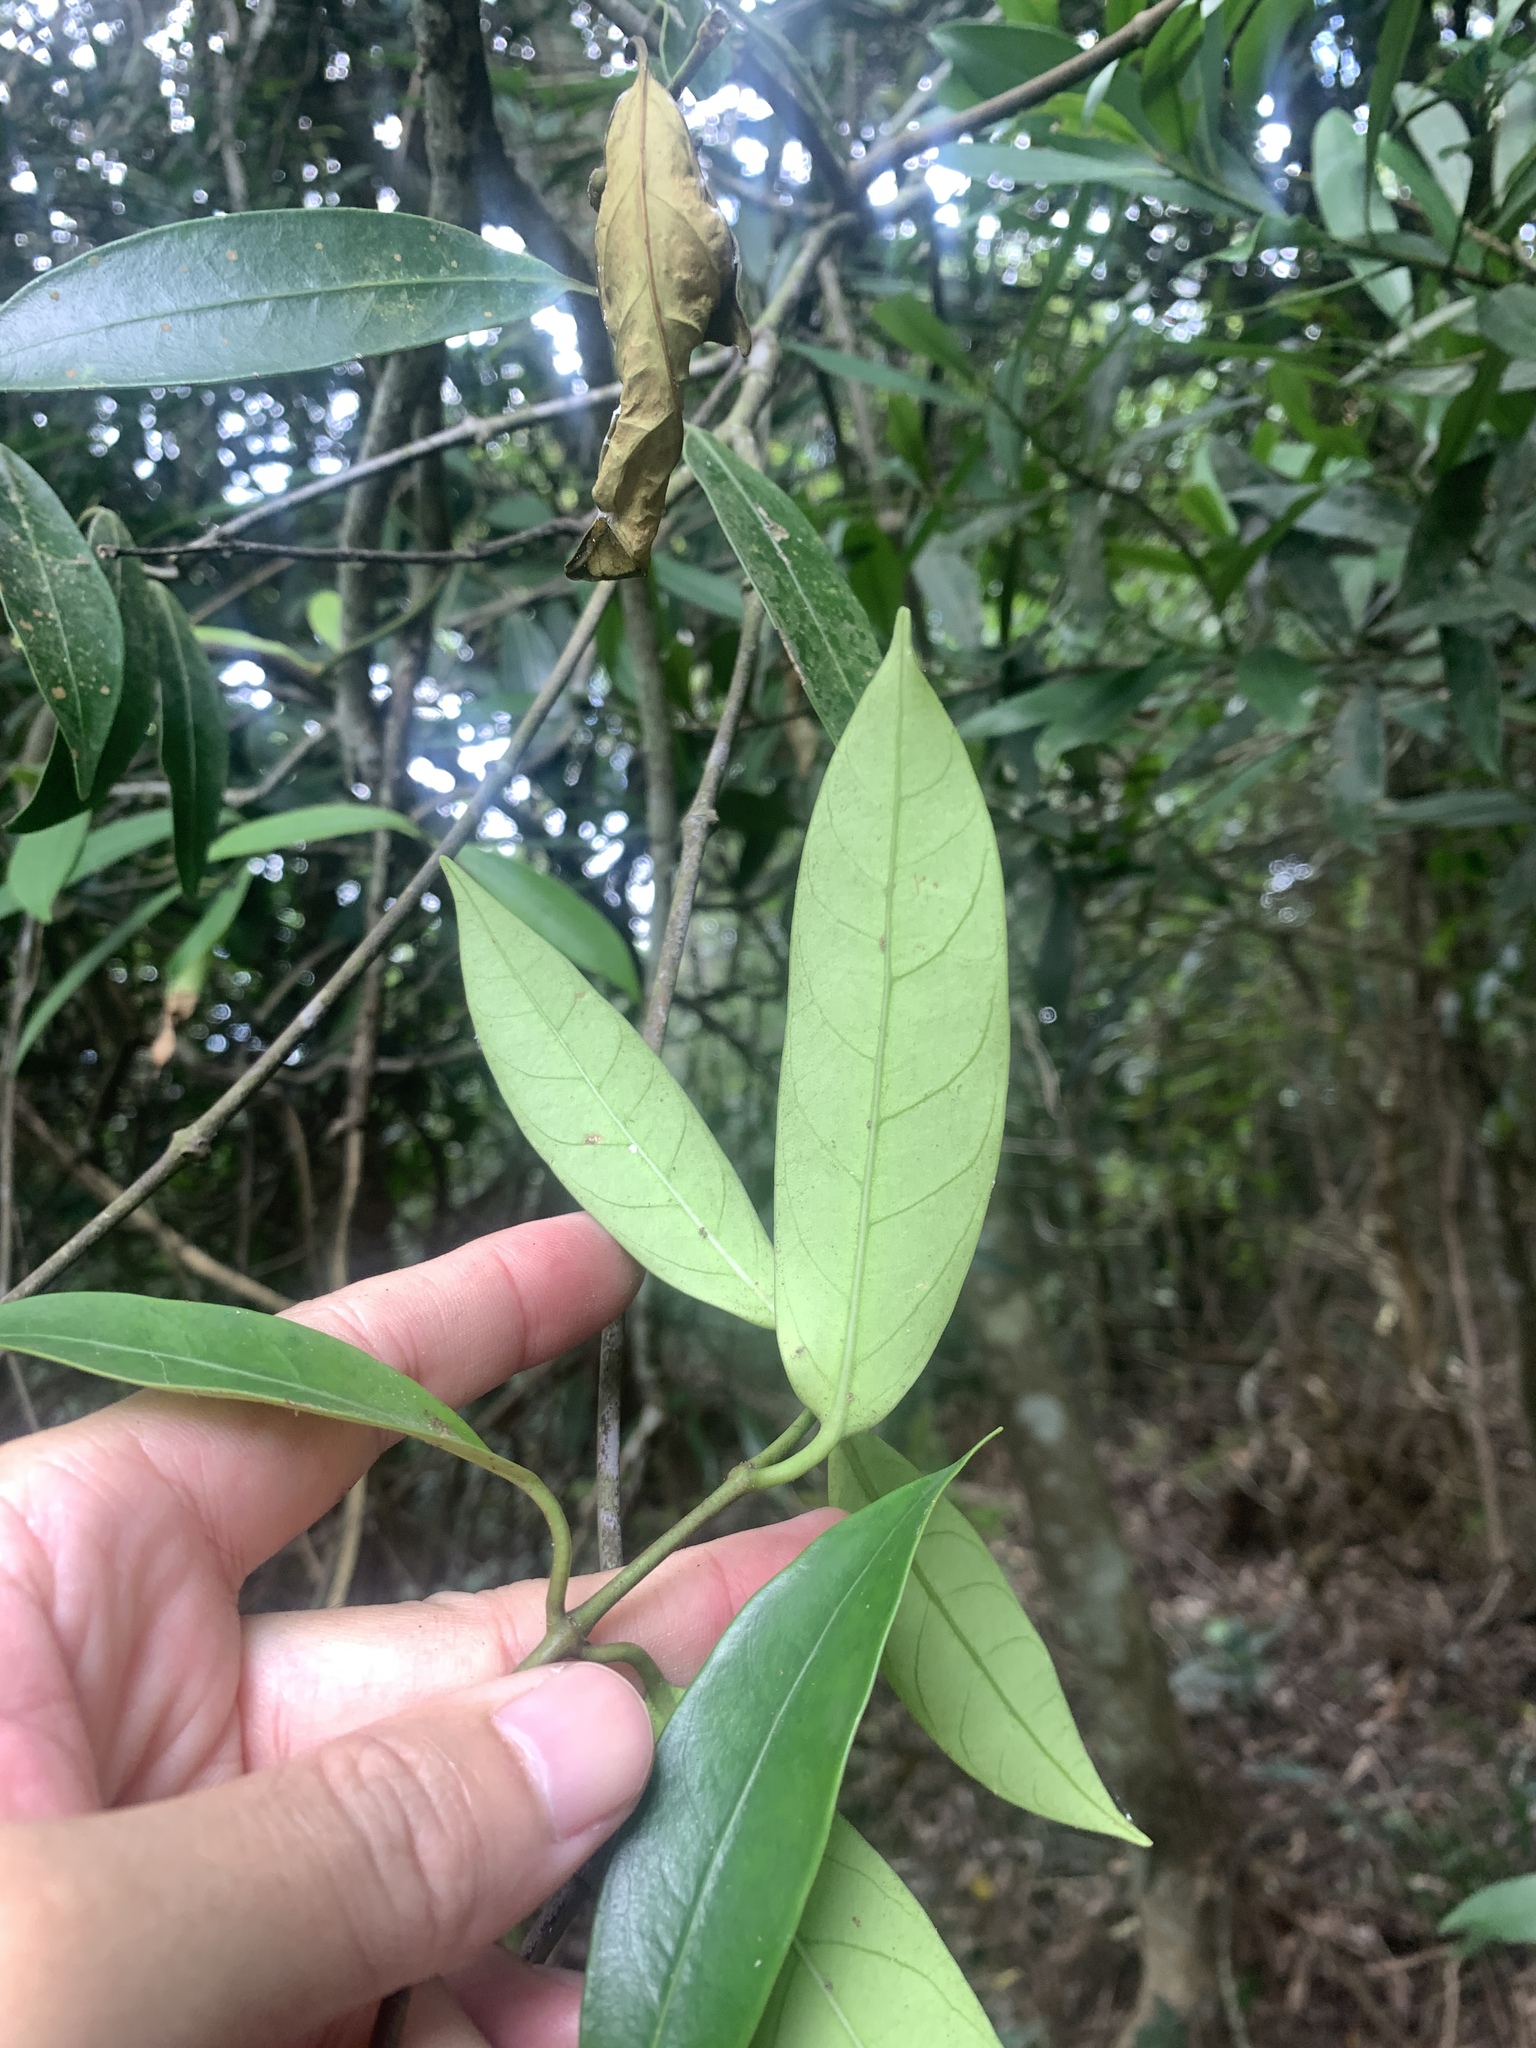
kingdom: Plantae
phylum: Tracheophyta
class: Magnoliopsida
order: Gentianales
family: Apocynaceae
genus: Anodendron
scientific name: Anodendron affine
